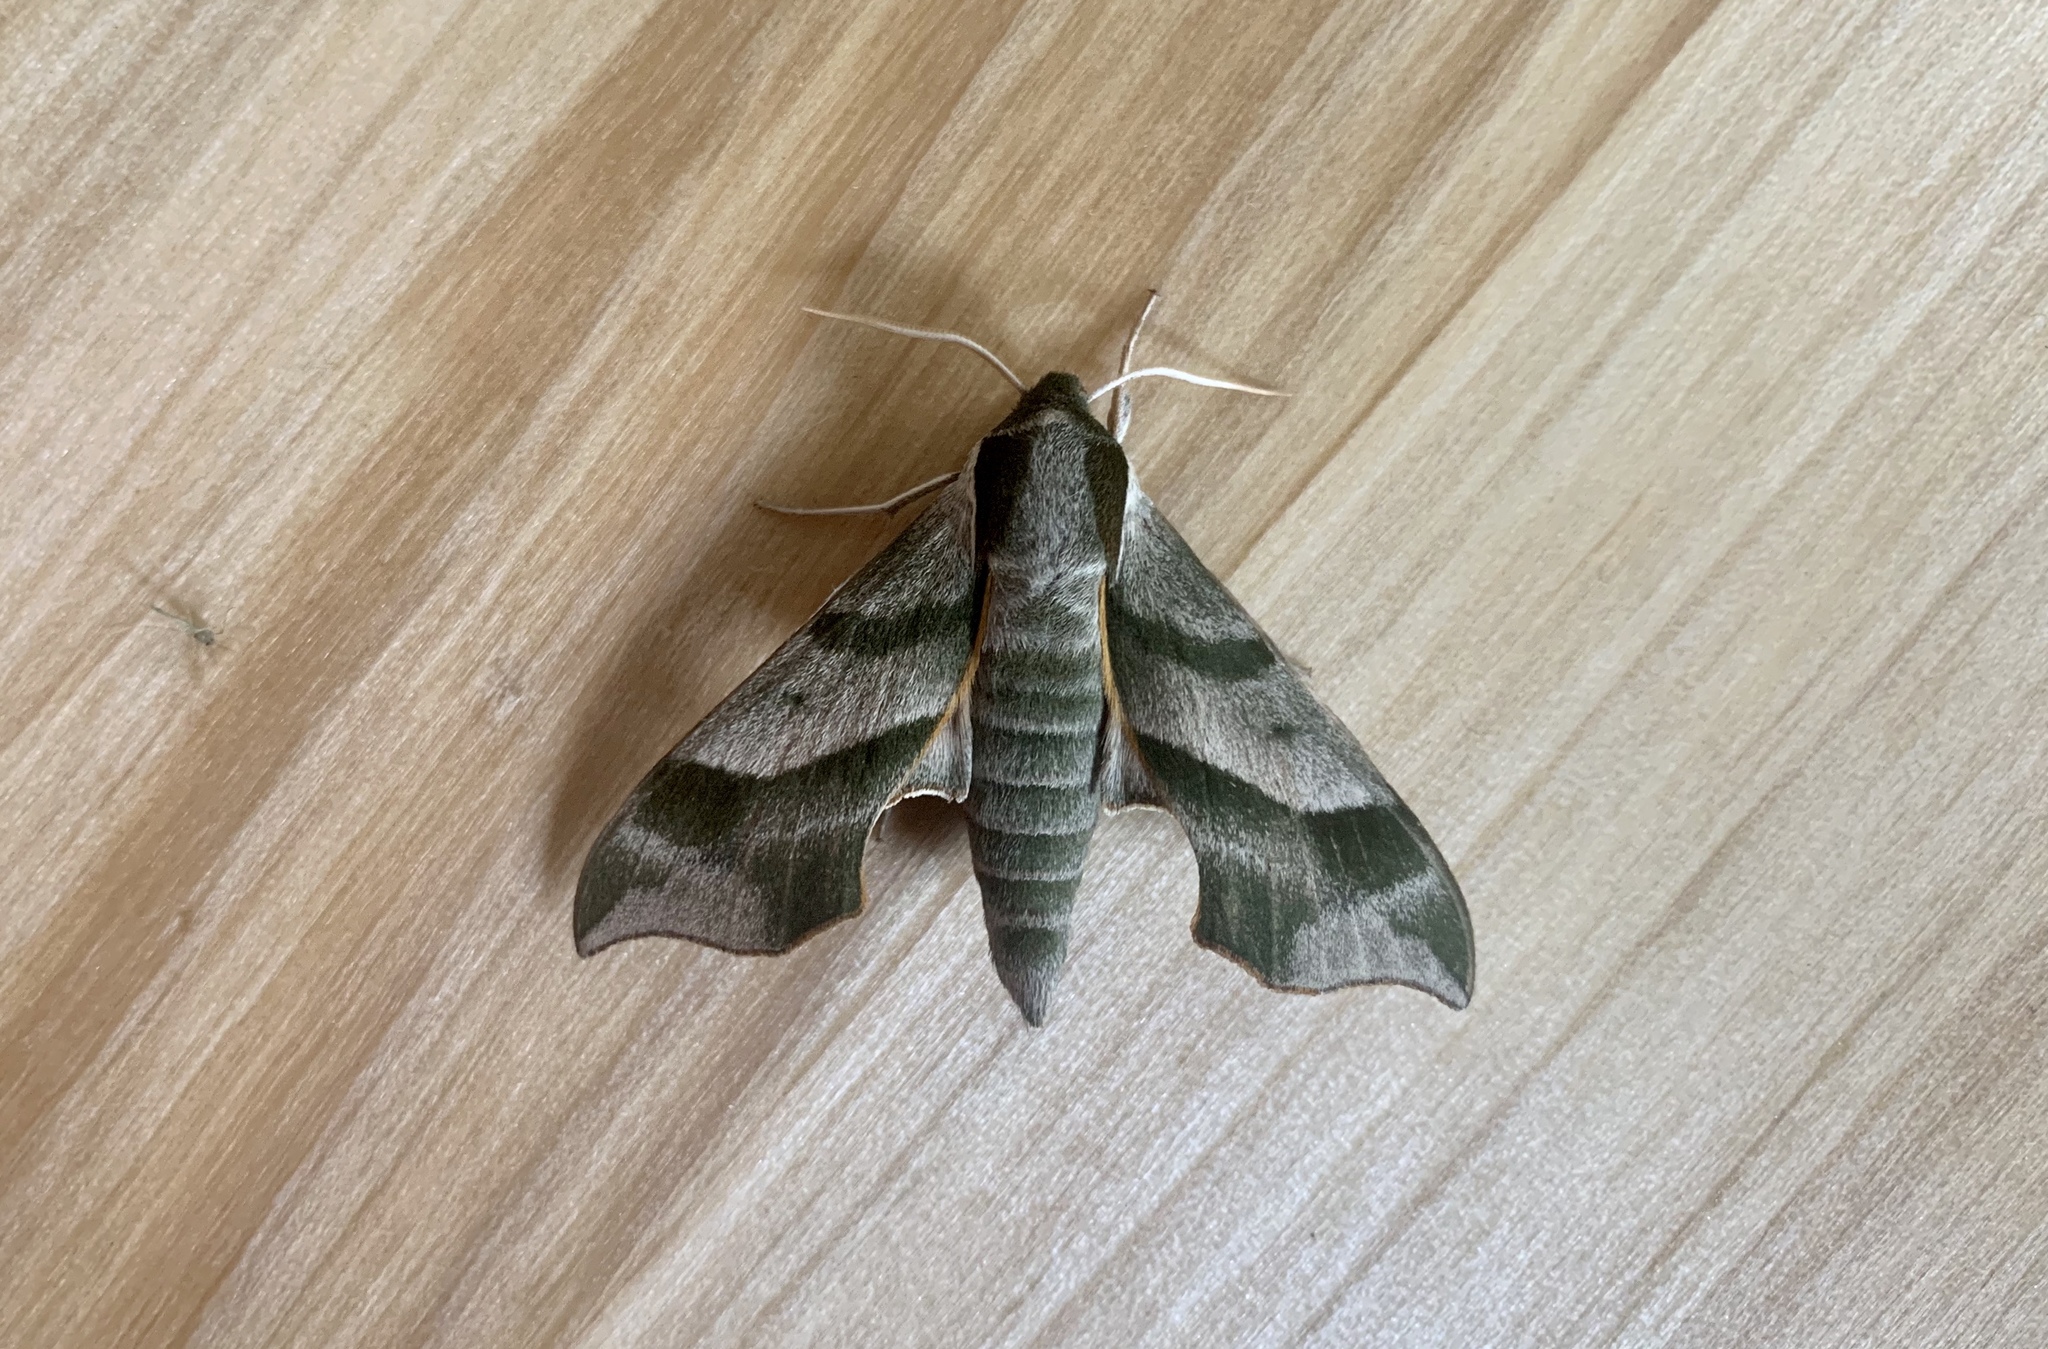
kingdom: Animalia
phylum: Arthropoda
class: Insecta
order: Lepidoptera
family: Sphingidae
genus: Darapsa
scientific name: Darapsa myron
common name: Hog sphinx
